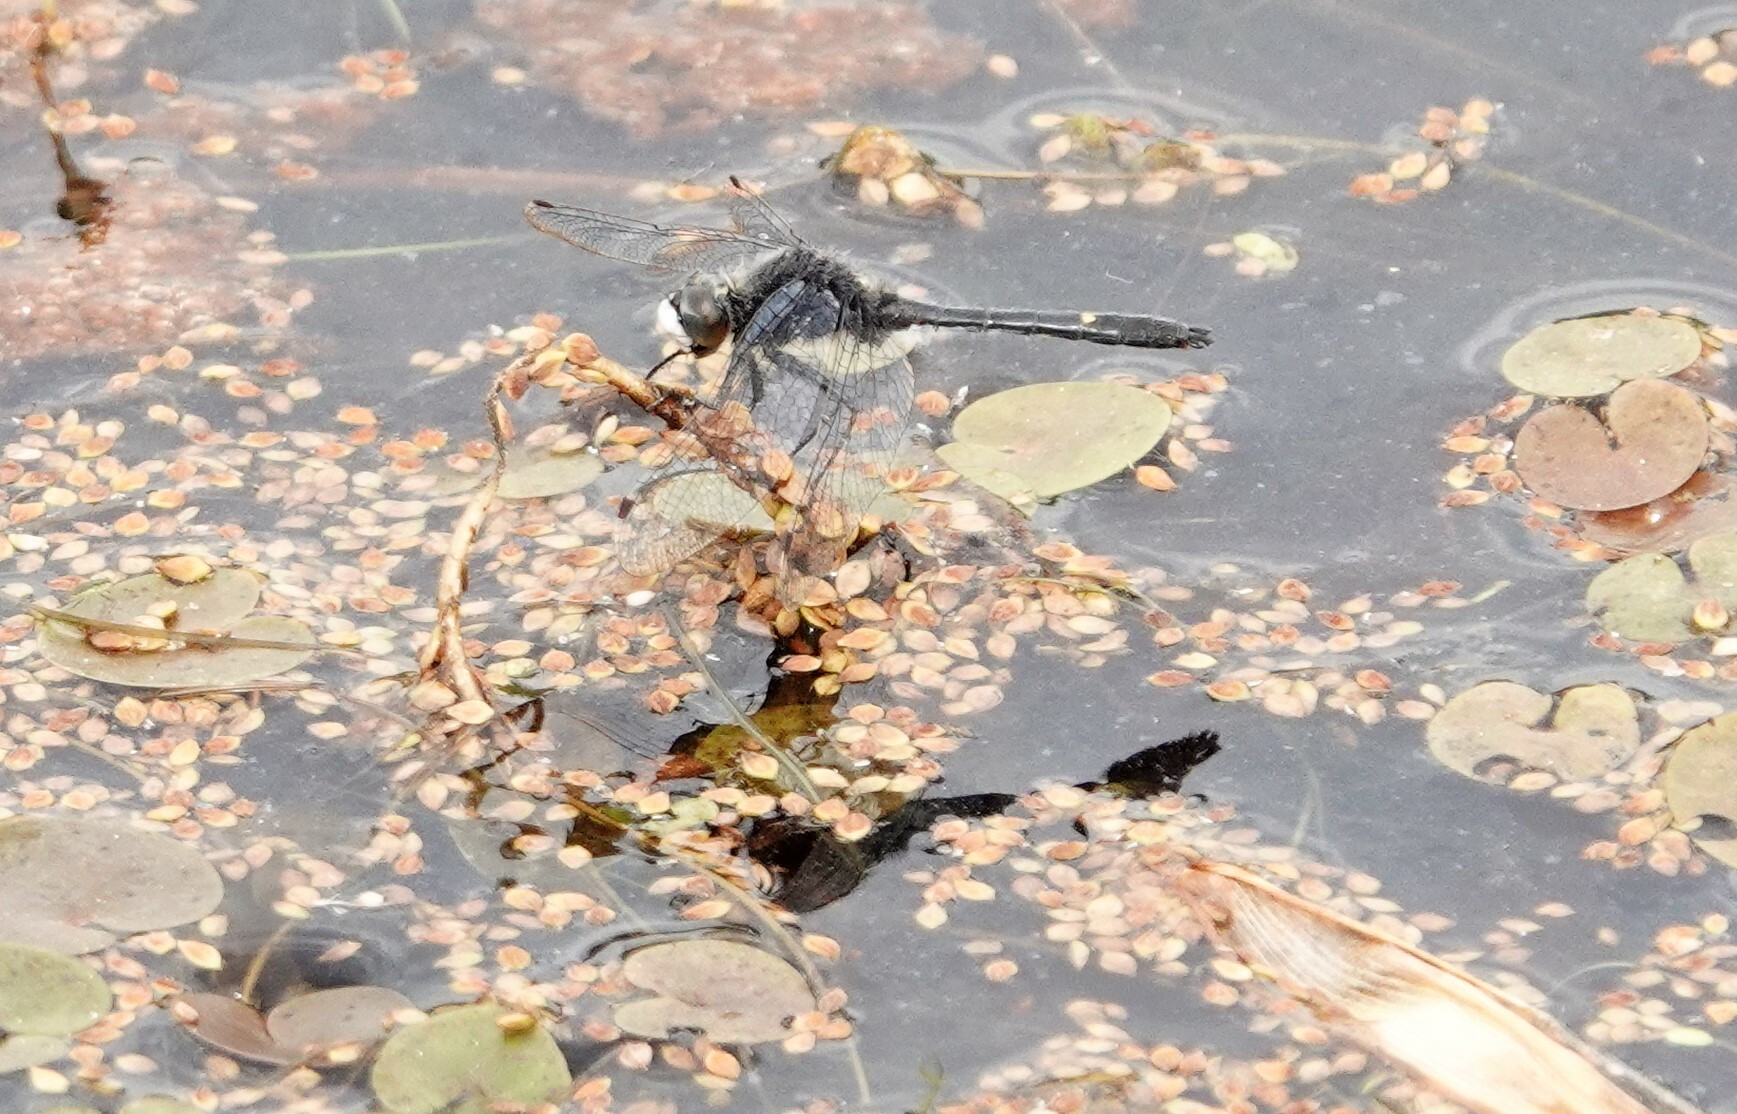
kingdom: Animalia
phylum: Arthropoda
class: Insecta
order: Odonata
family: Libellulidae
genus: Leucorrhinia
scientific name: Leucorrhinia intacta
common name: Dot-tailed whiteface
